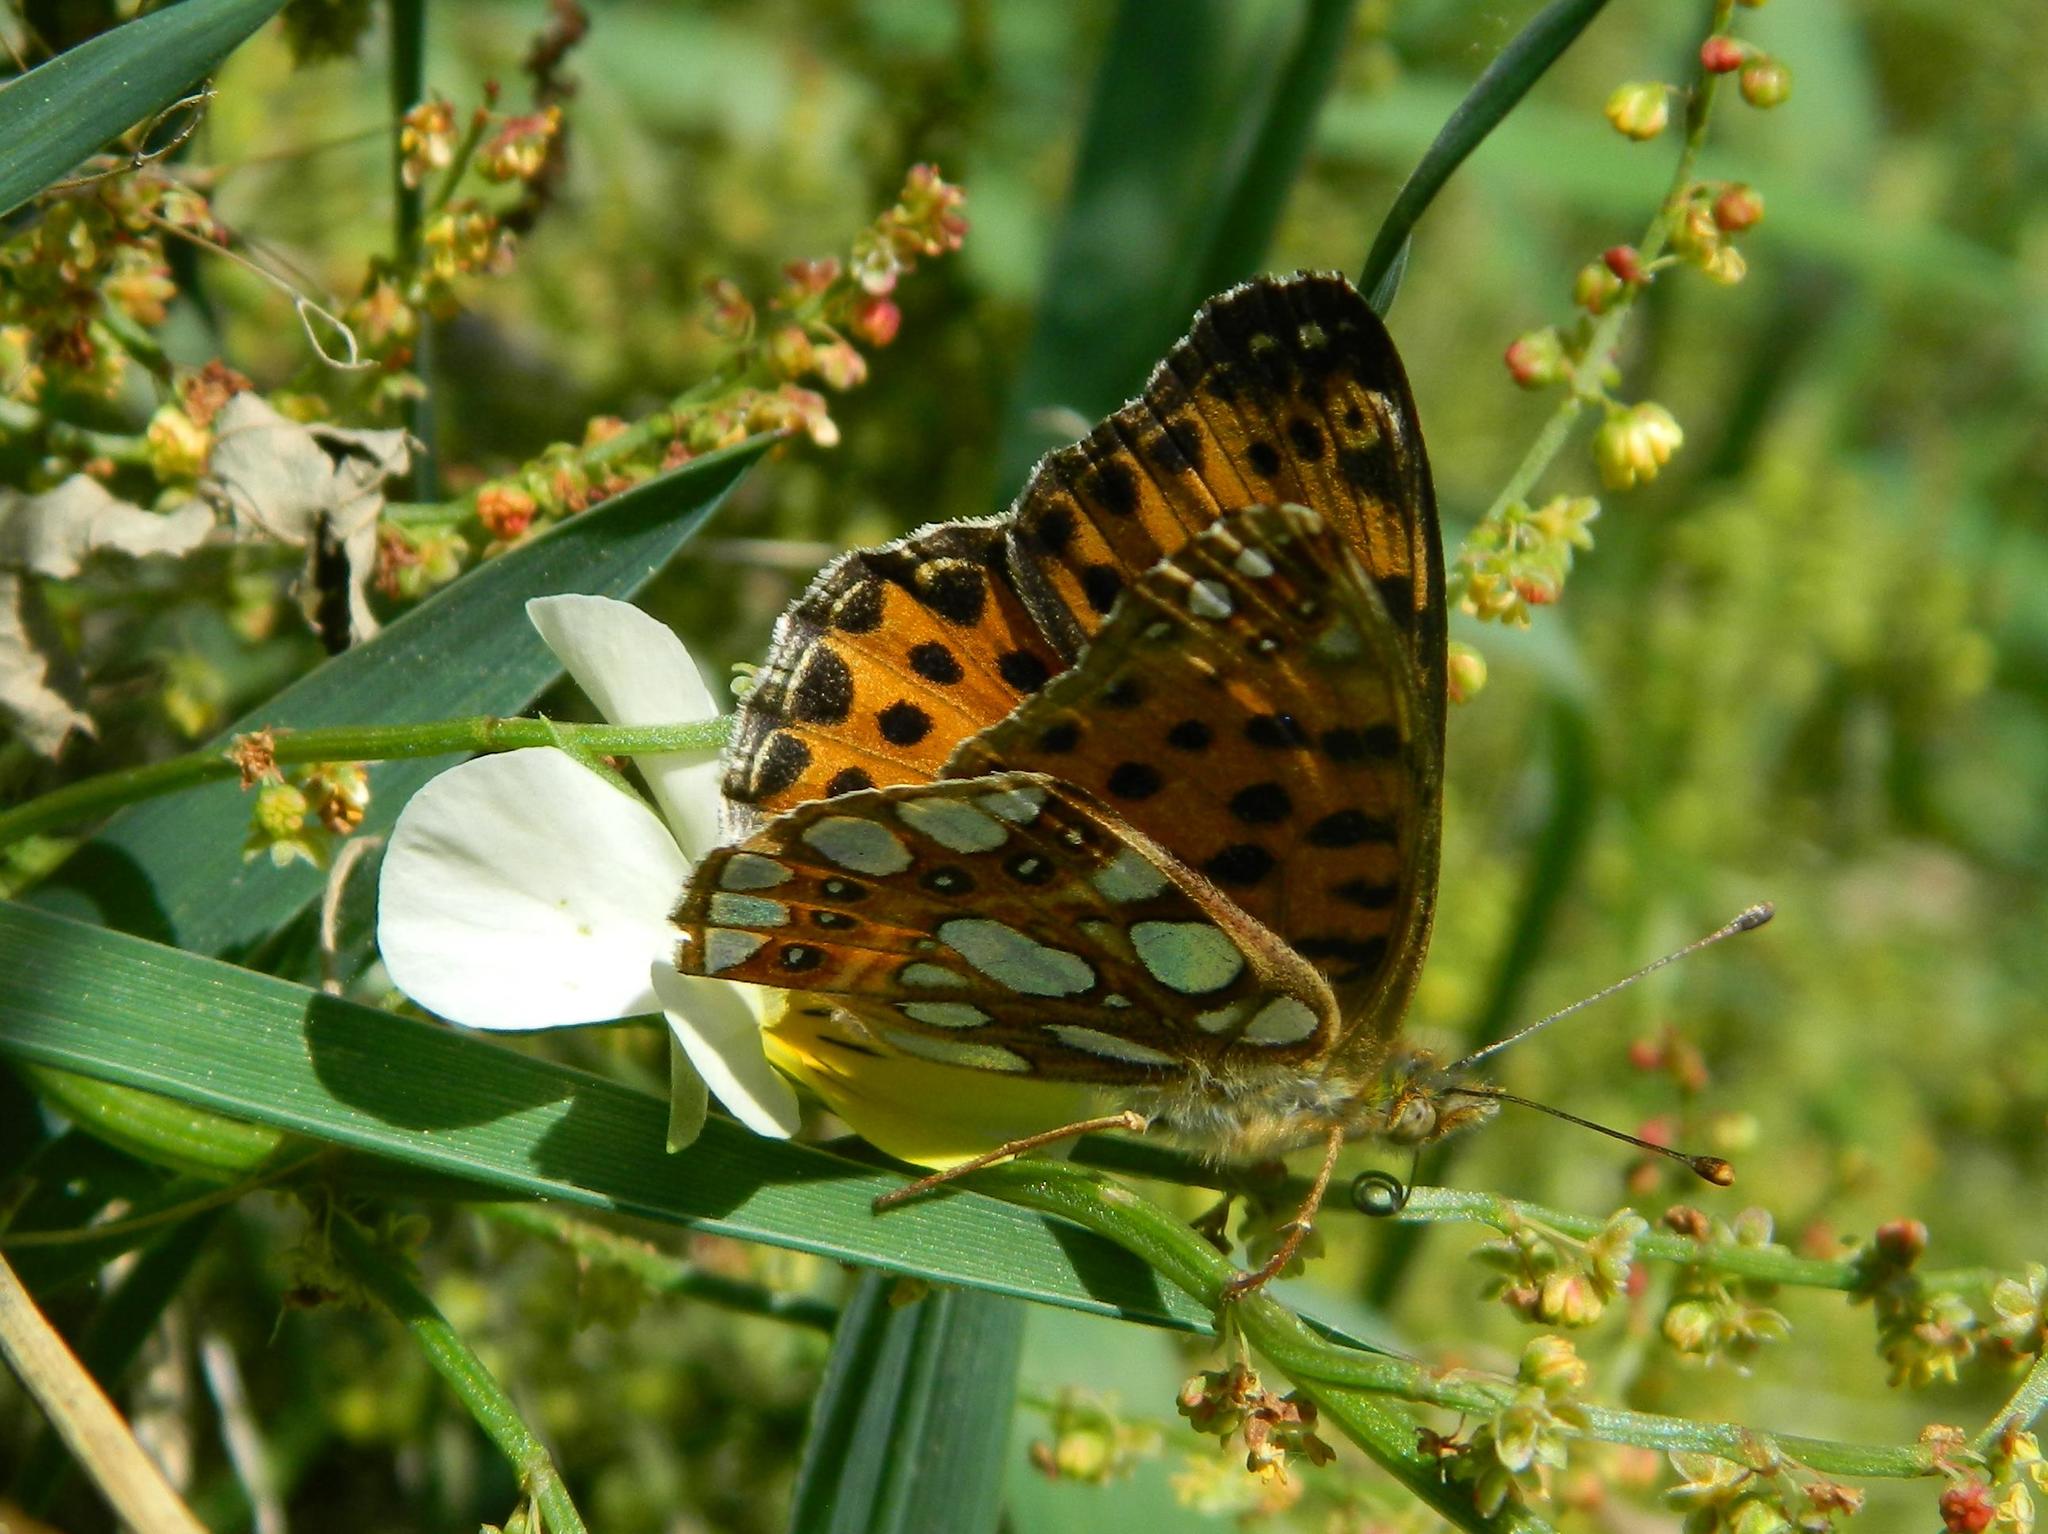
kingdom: Animalia
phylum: Arthropoda
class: Insecta
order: Lepidoptera
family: Nymphalidae
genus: Issoria
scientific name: Issoria lathonia
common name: Queen of spain fritillary
